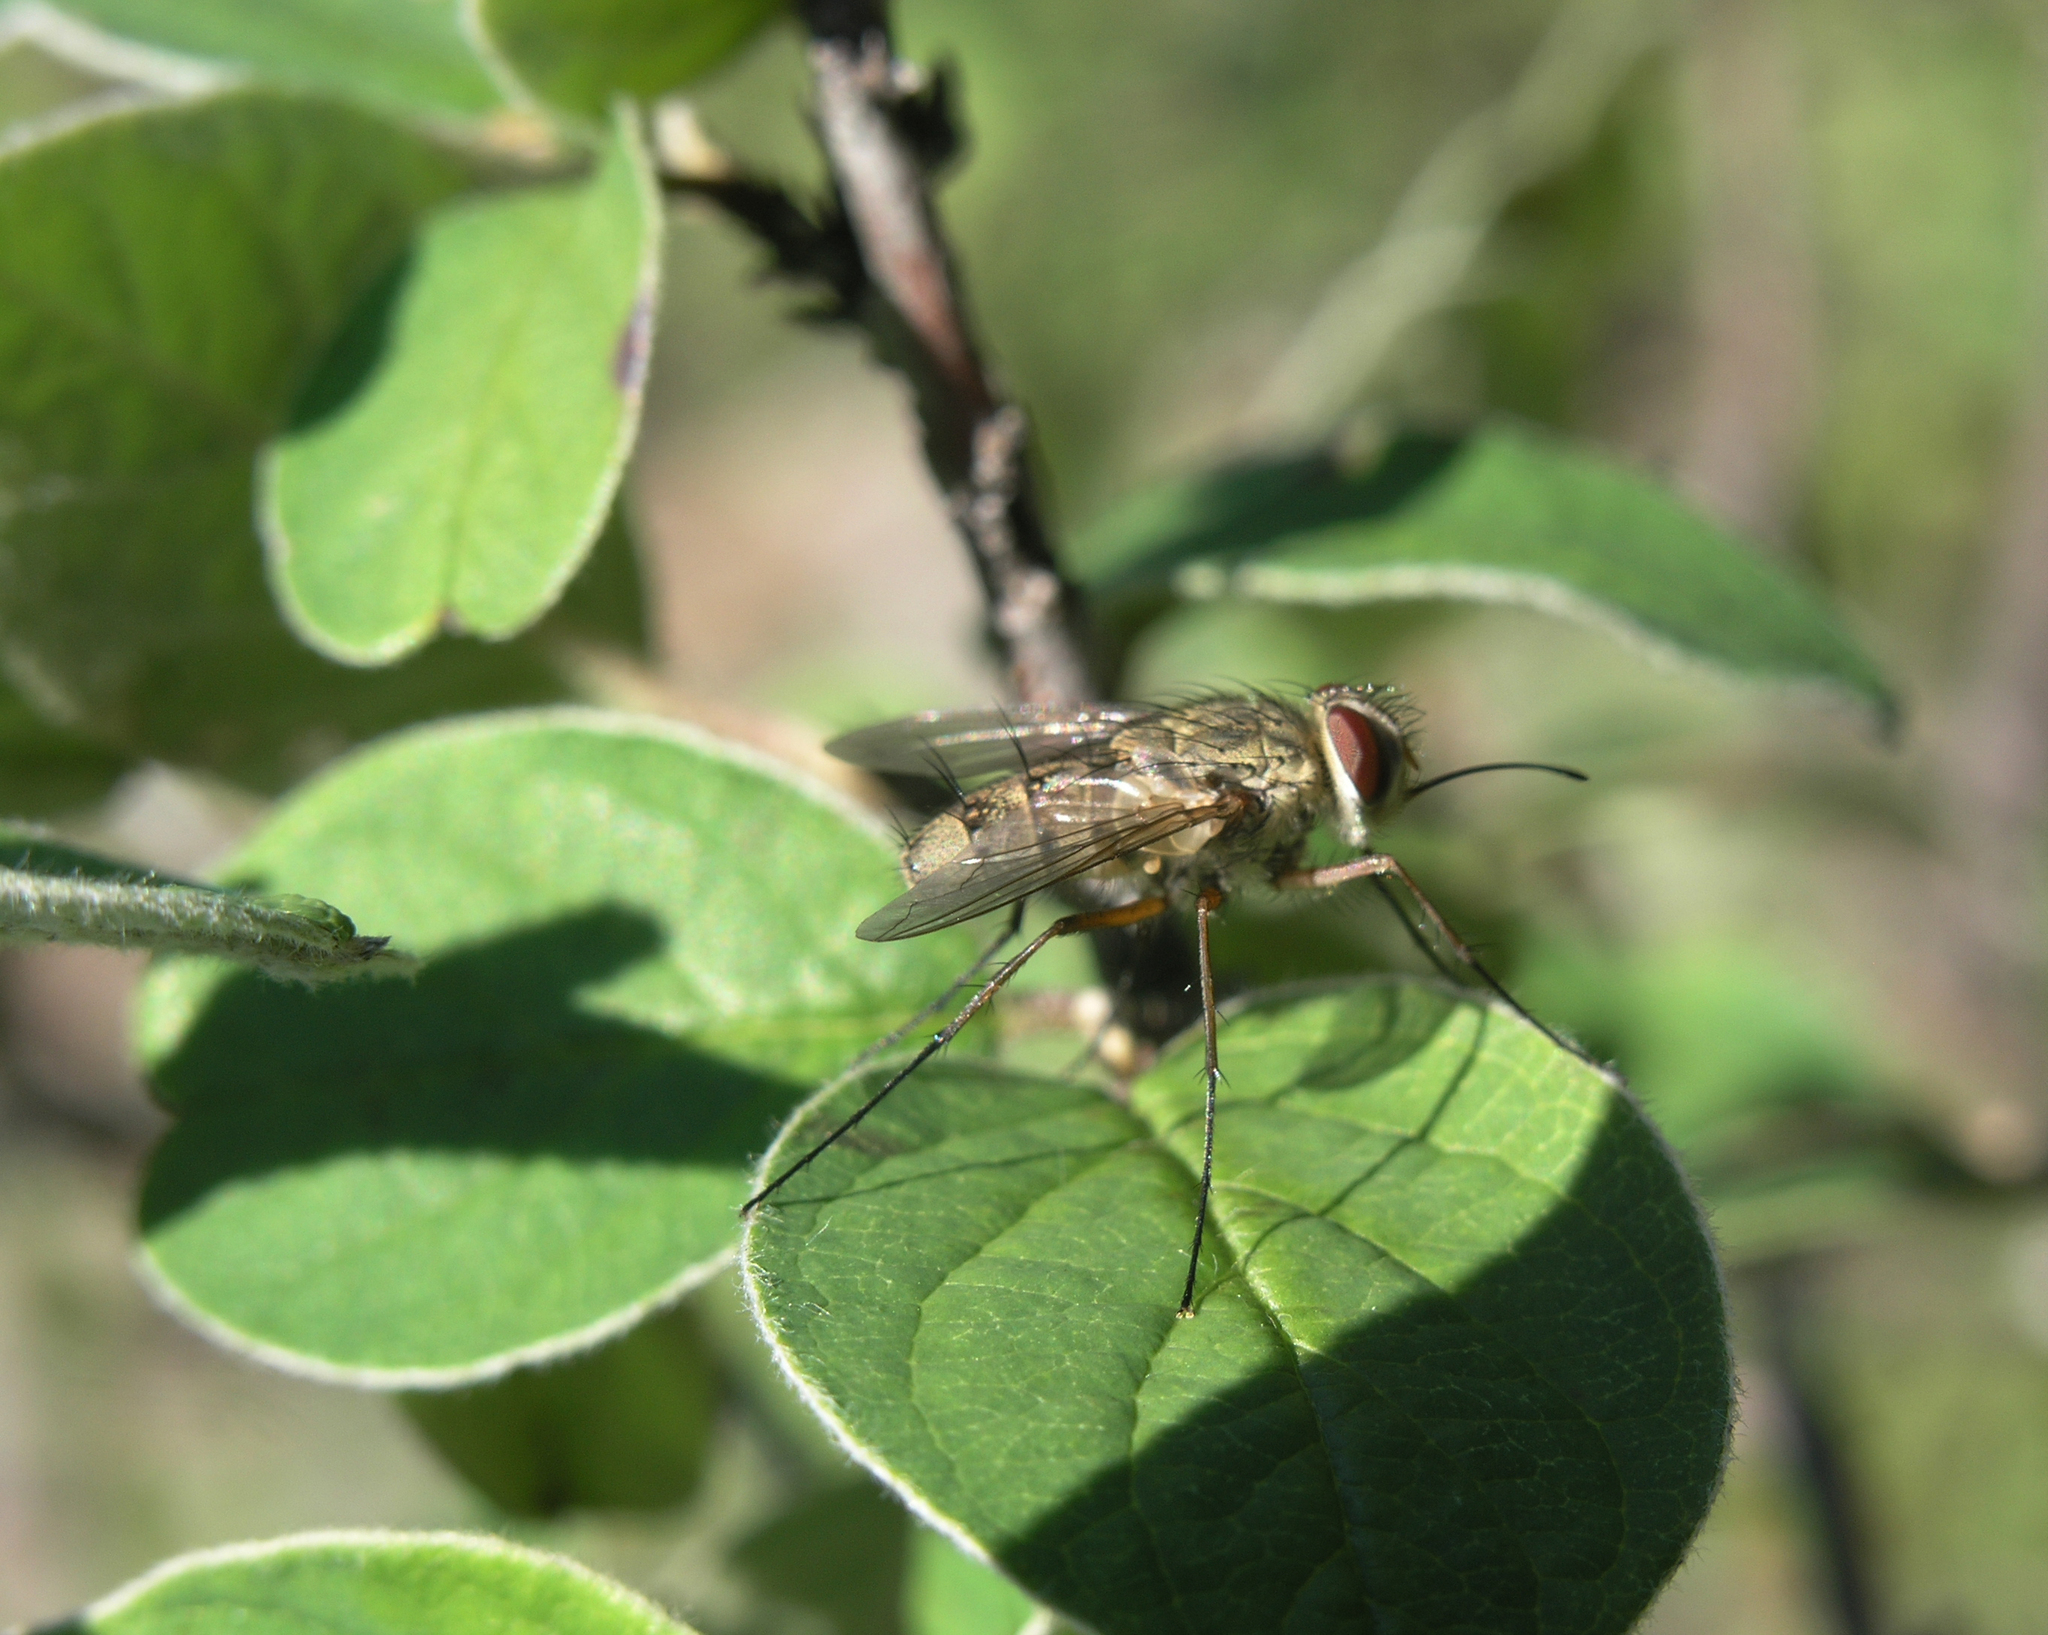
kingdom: Plantae
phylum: Tracheophyta
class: Magnoliopsida
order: Rosales
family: Rosaceae
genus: Cotoneaster
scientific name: Cotoneaster melanocarpus
